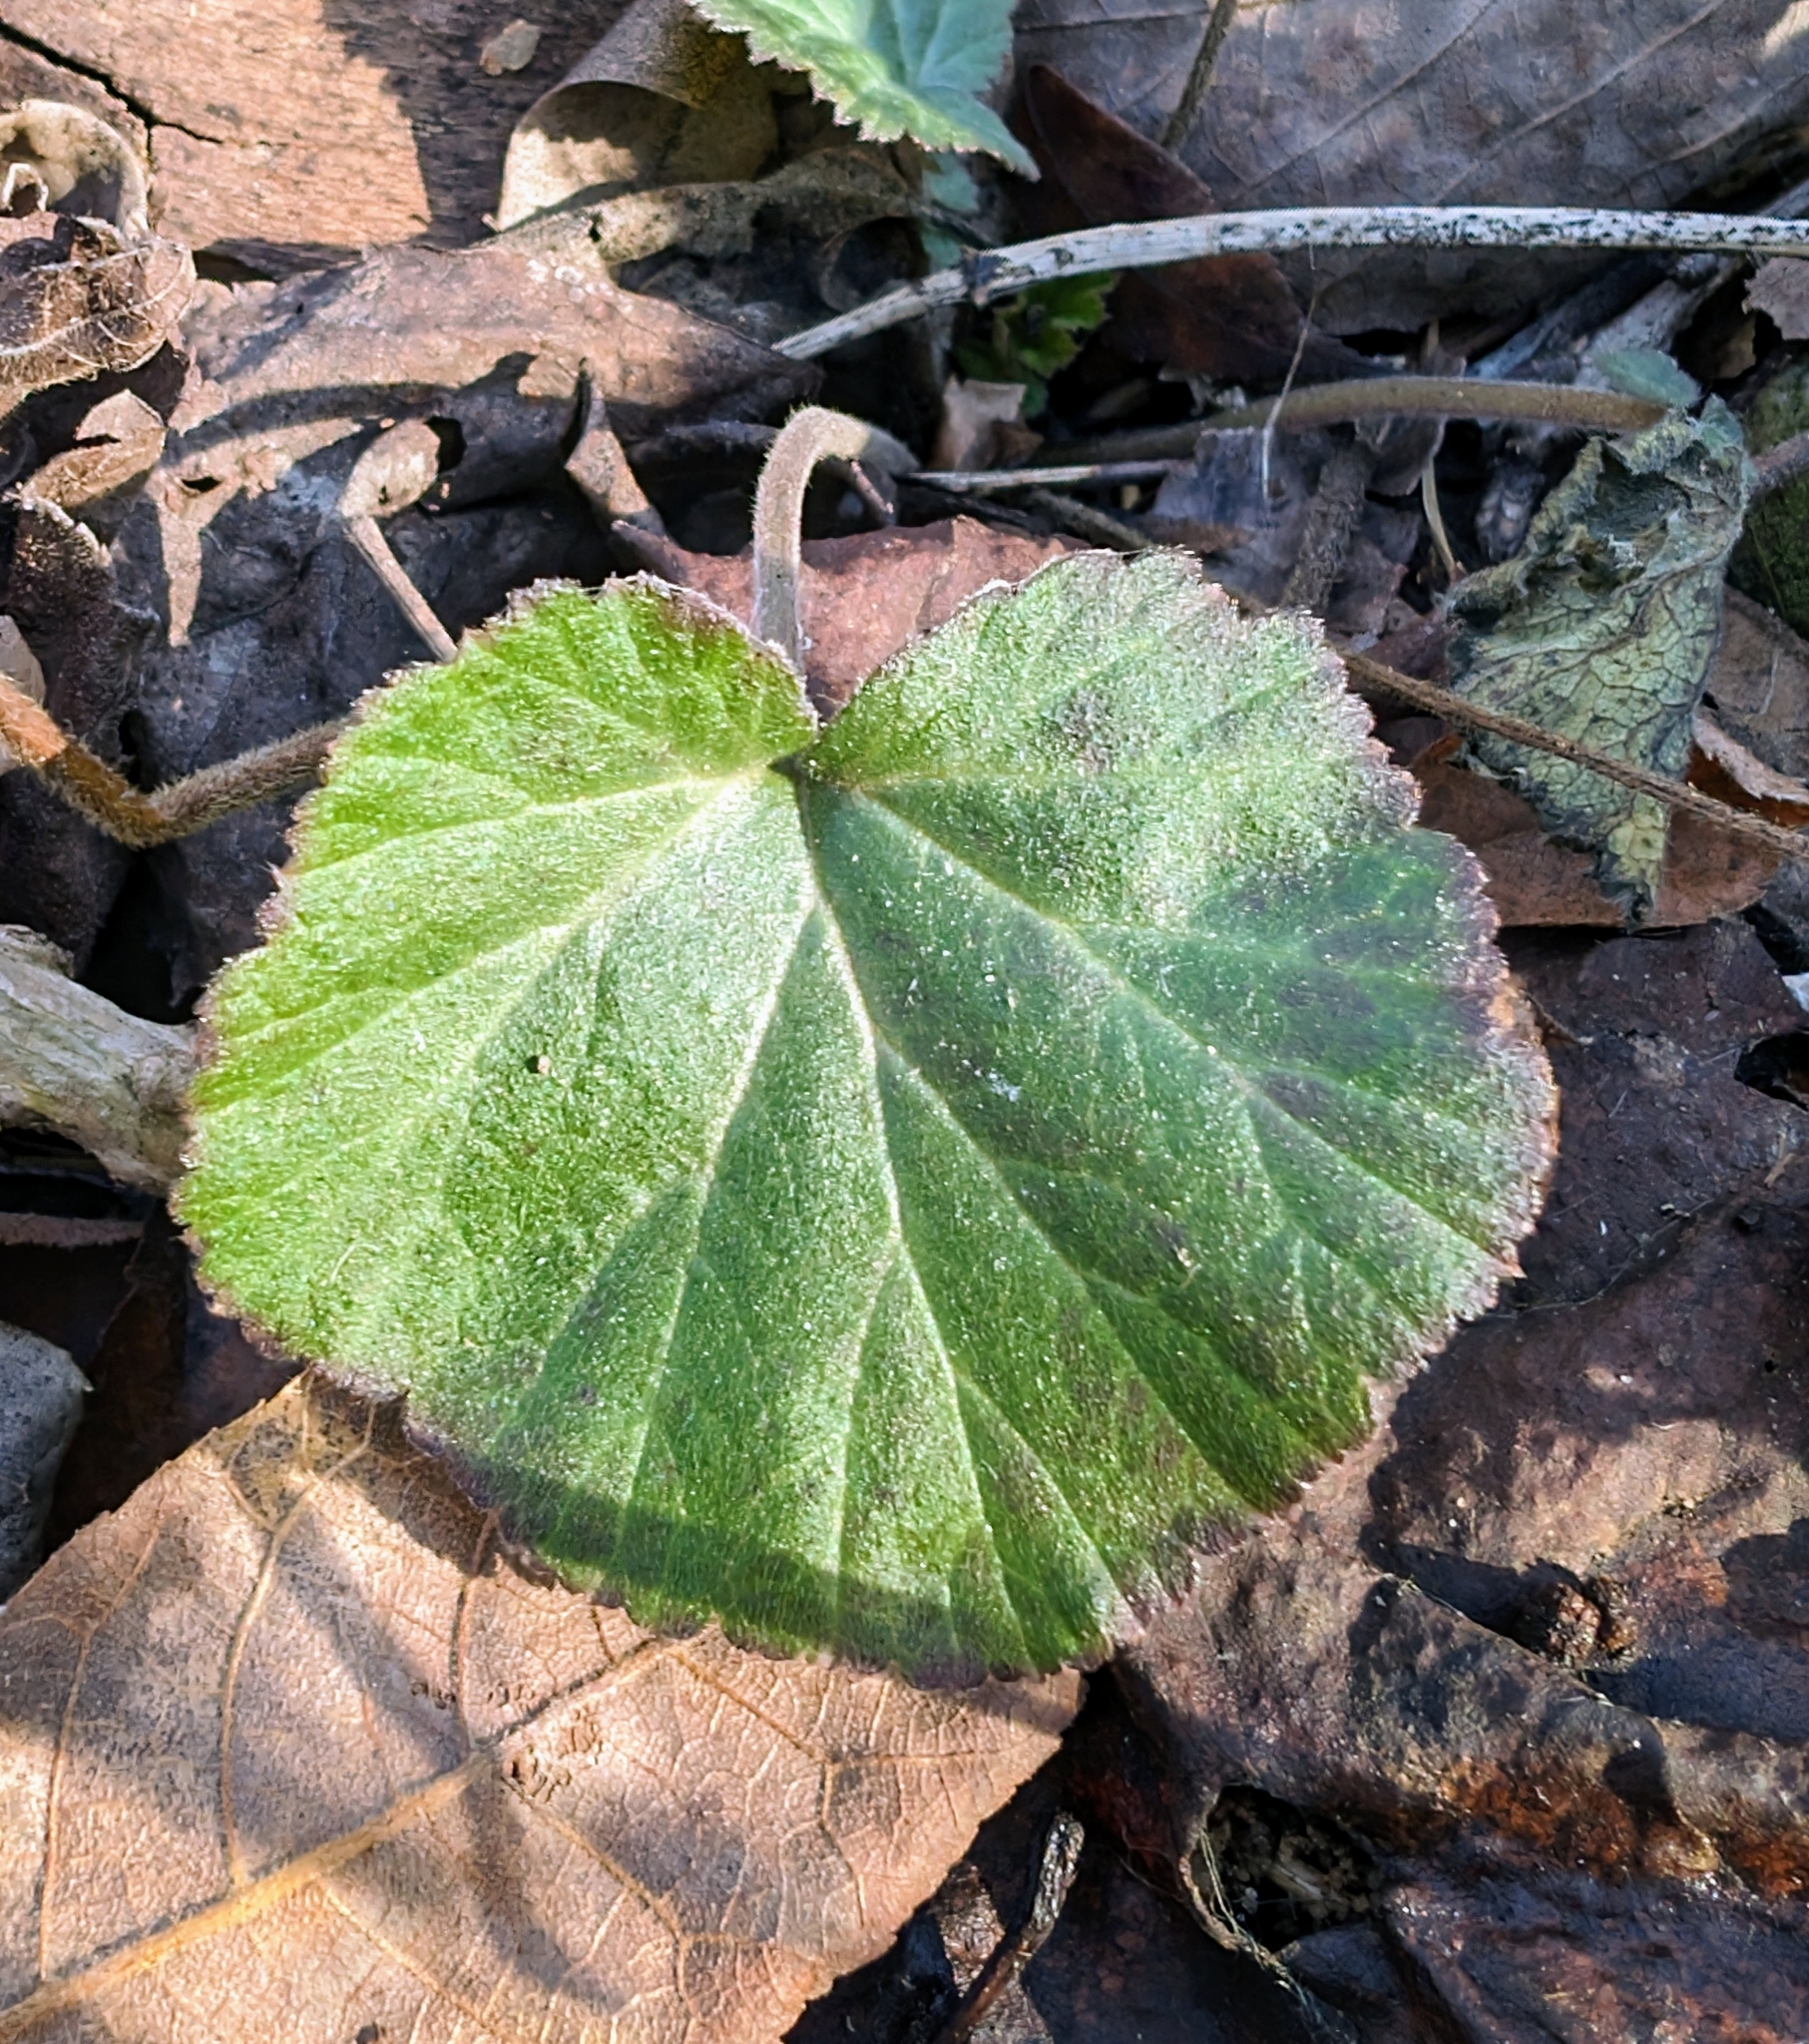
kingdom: Plantae
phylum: Tracheophyta
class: Magnoliopsida
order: Rosales
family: Rosaceae
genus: Geum
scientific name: Geum canadense
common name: White avens
